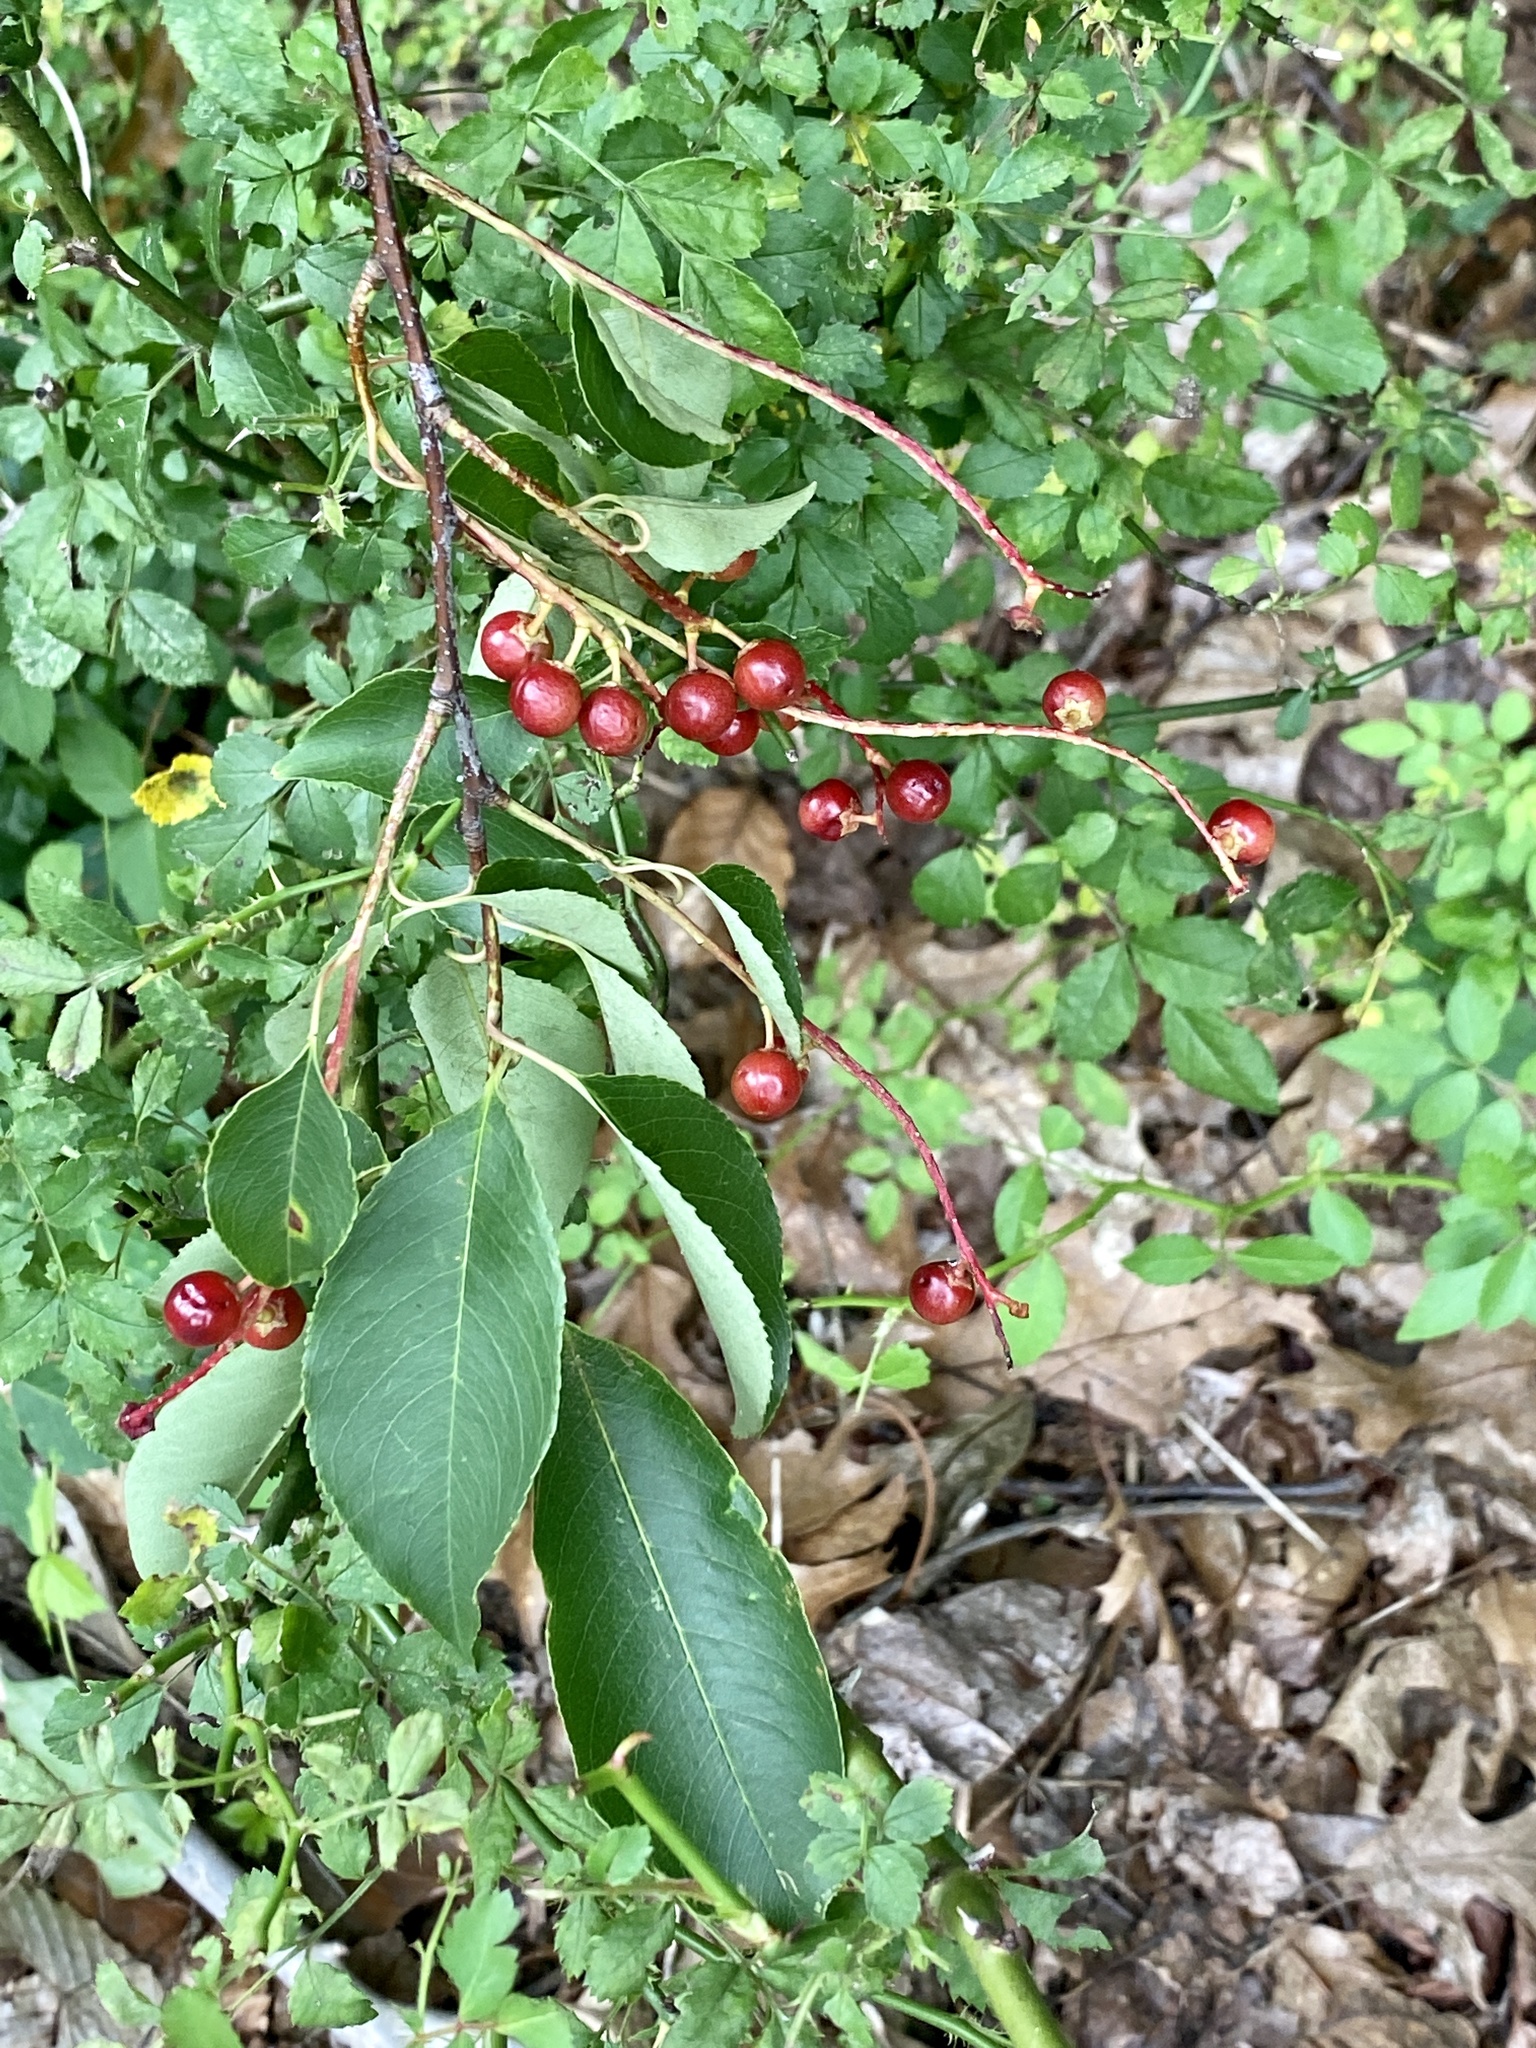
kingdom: Plantae
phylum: Tracheophyta
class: Magnoliopsida
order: Rosales
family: Rosaceae
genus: Prunus
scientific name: Prunus serotina
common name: Black cherry
